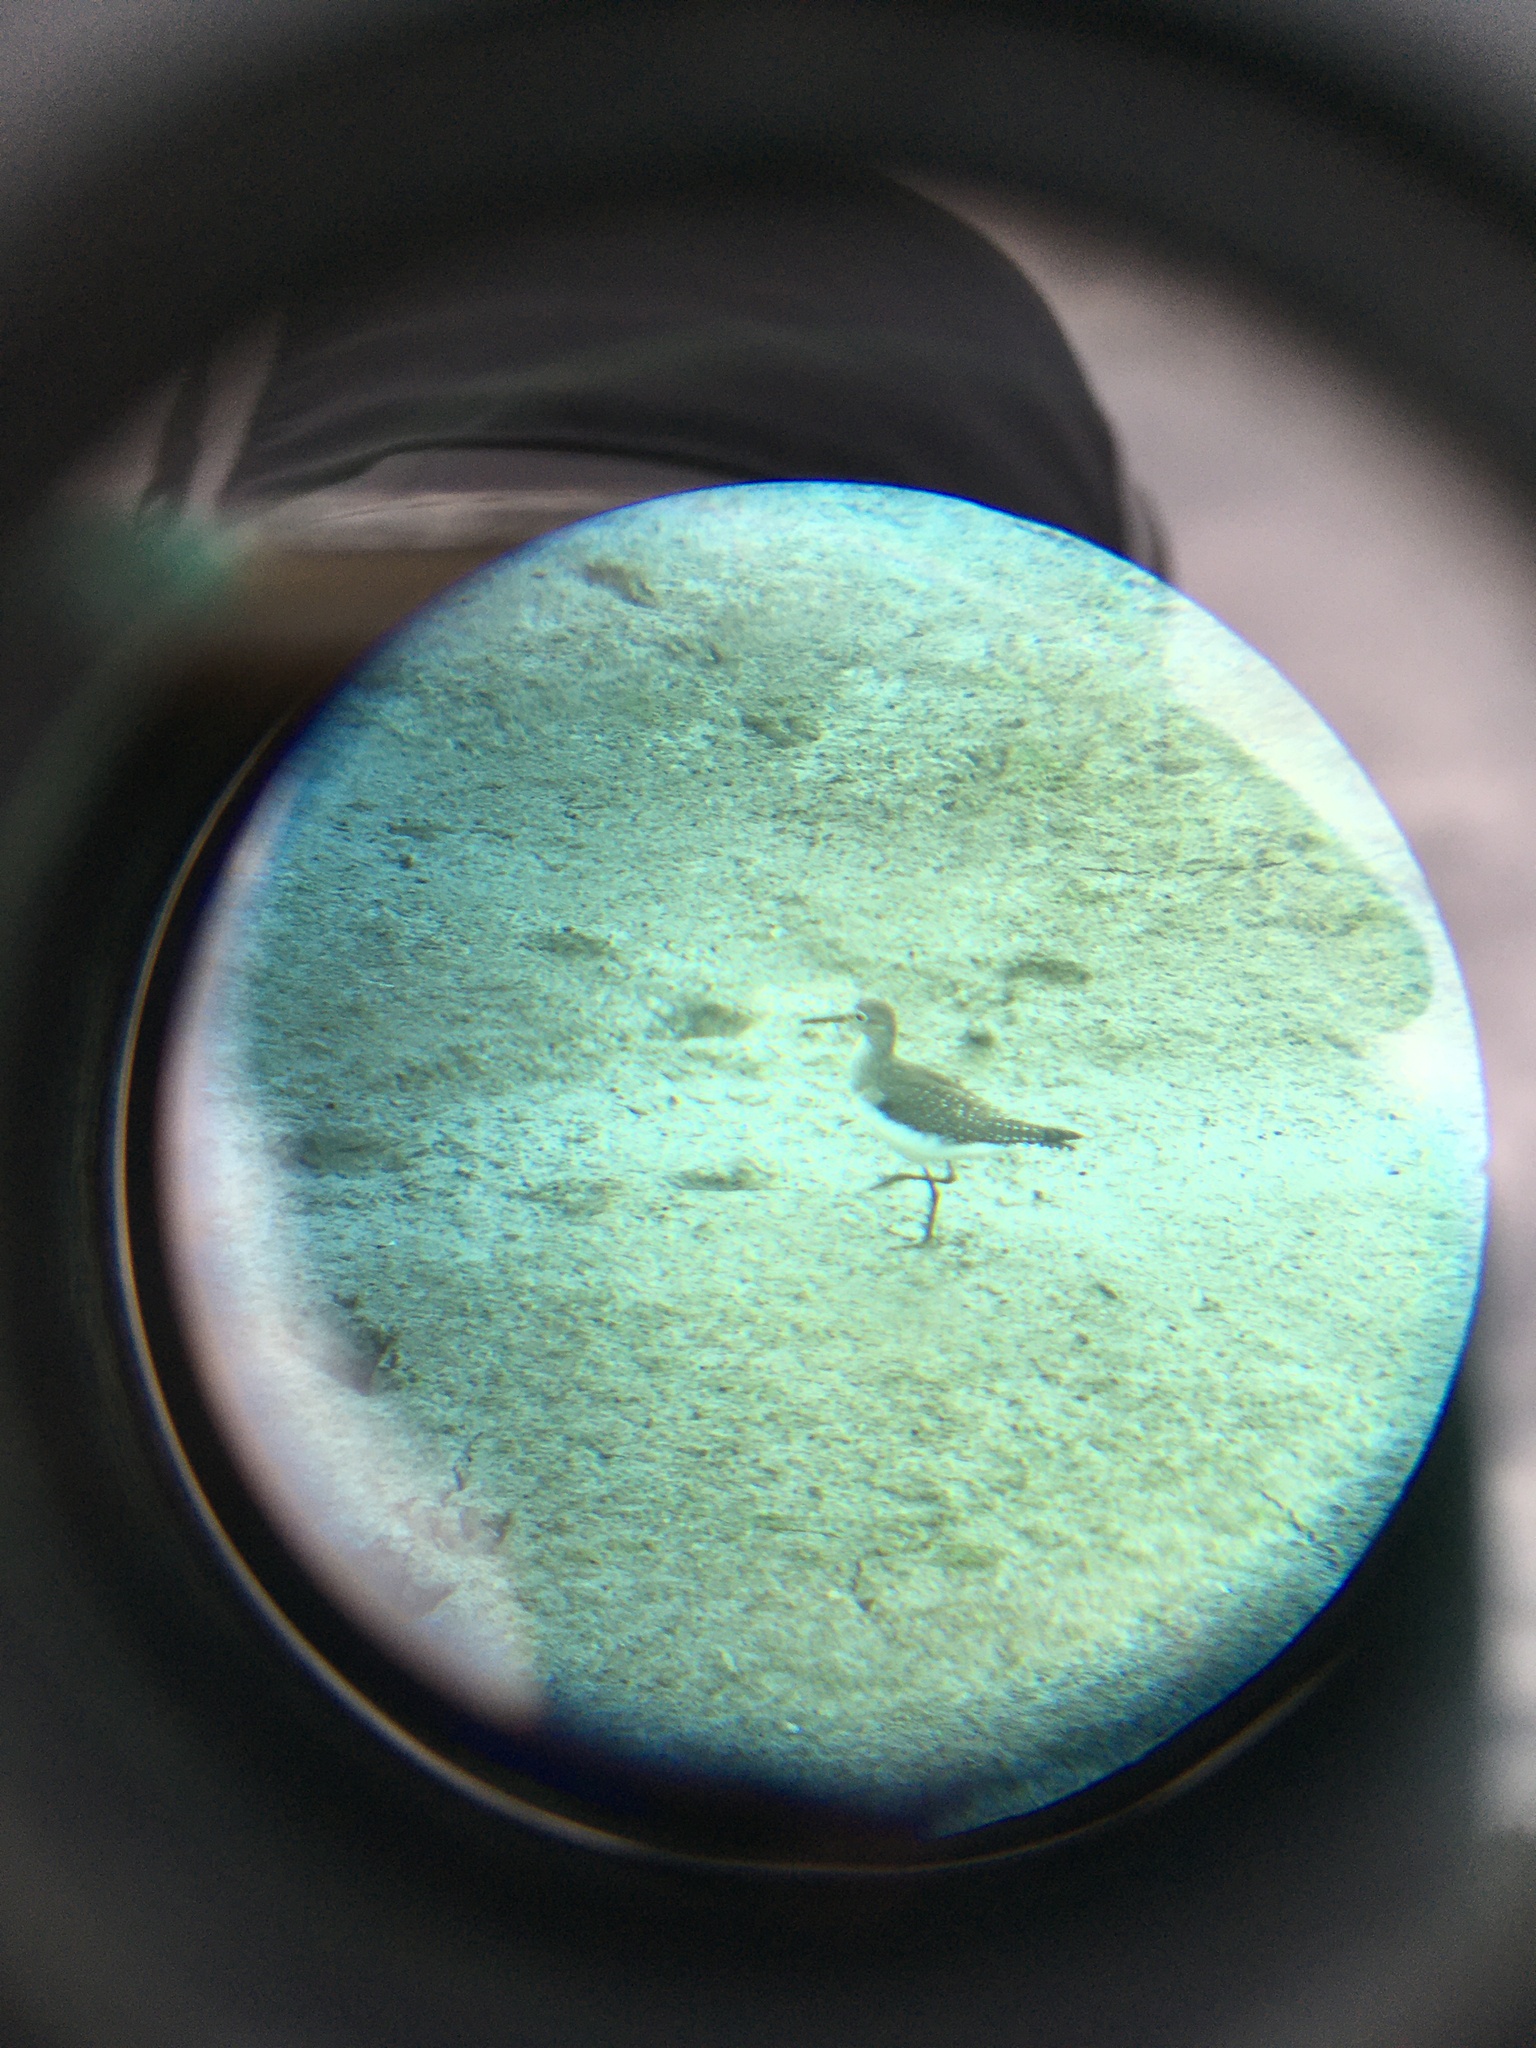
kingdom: Animalia
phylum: Chordata
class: Aves
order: Charadriiformes
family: Scolopacidae
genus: Tringa
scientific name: Tringa solitaria
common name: Solitary sandpiper
